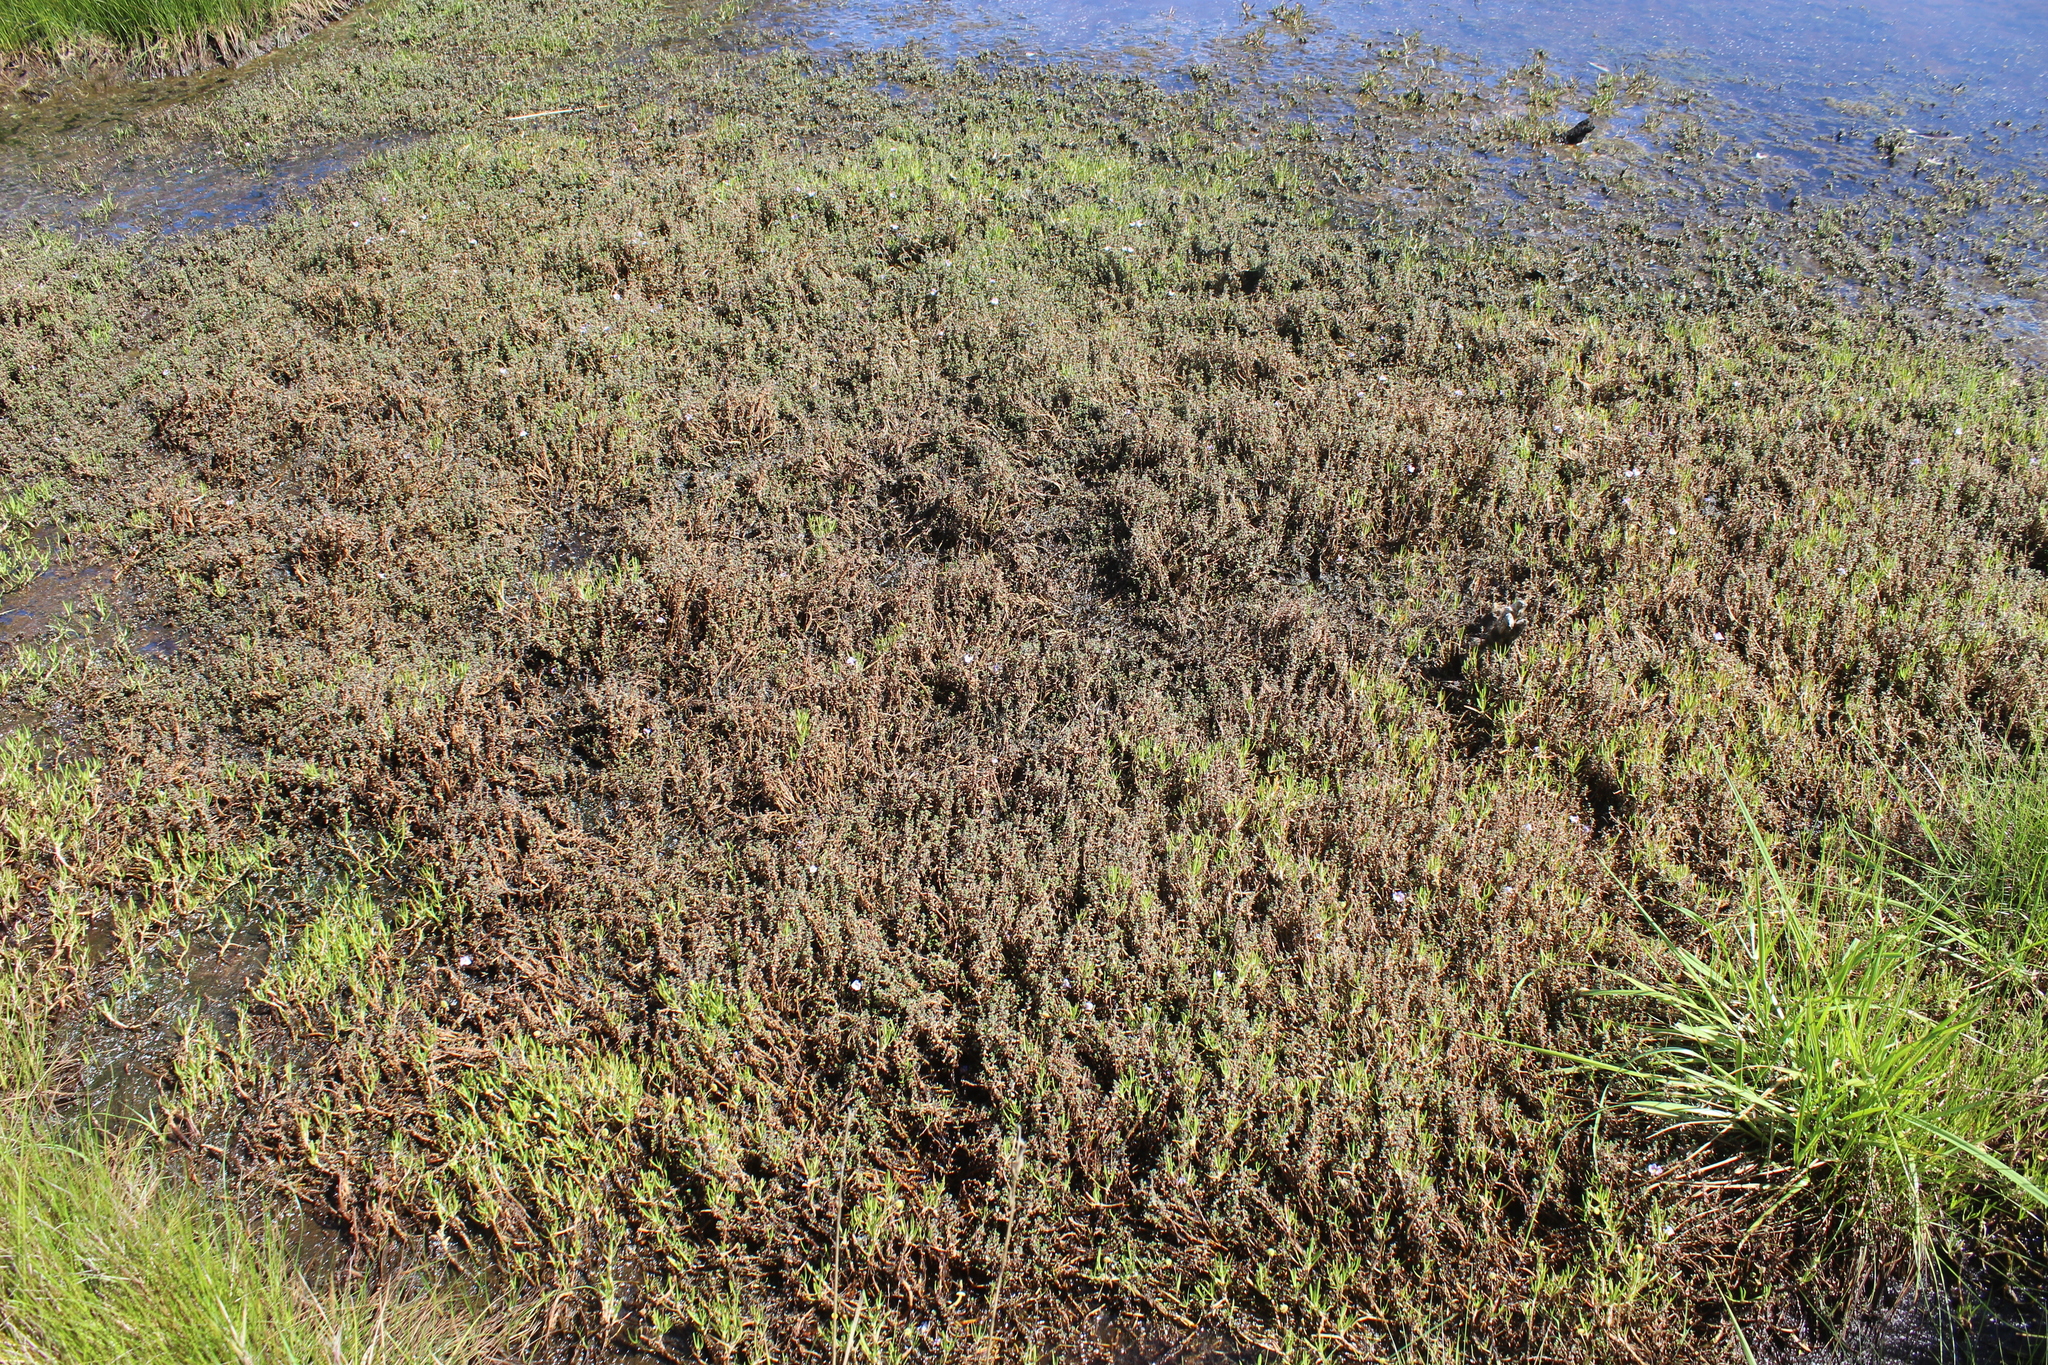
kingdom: Plantae
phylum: Tracheophyta
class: Magnoliopsida
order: Lamiales
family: Phrymaceae
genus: Thyridia
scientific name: Thyridia repens
